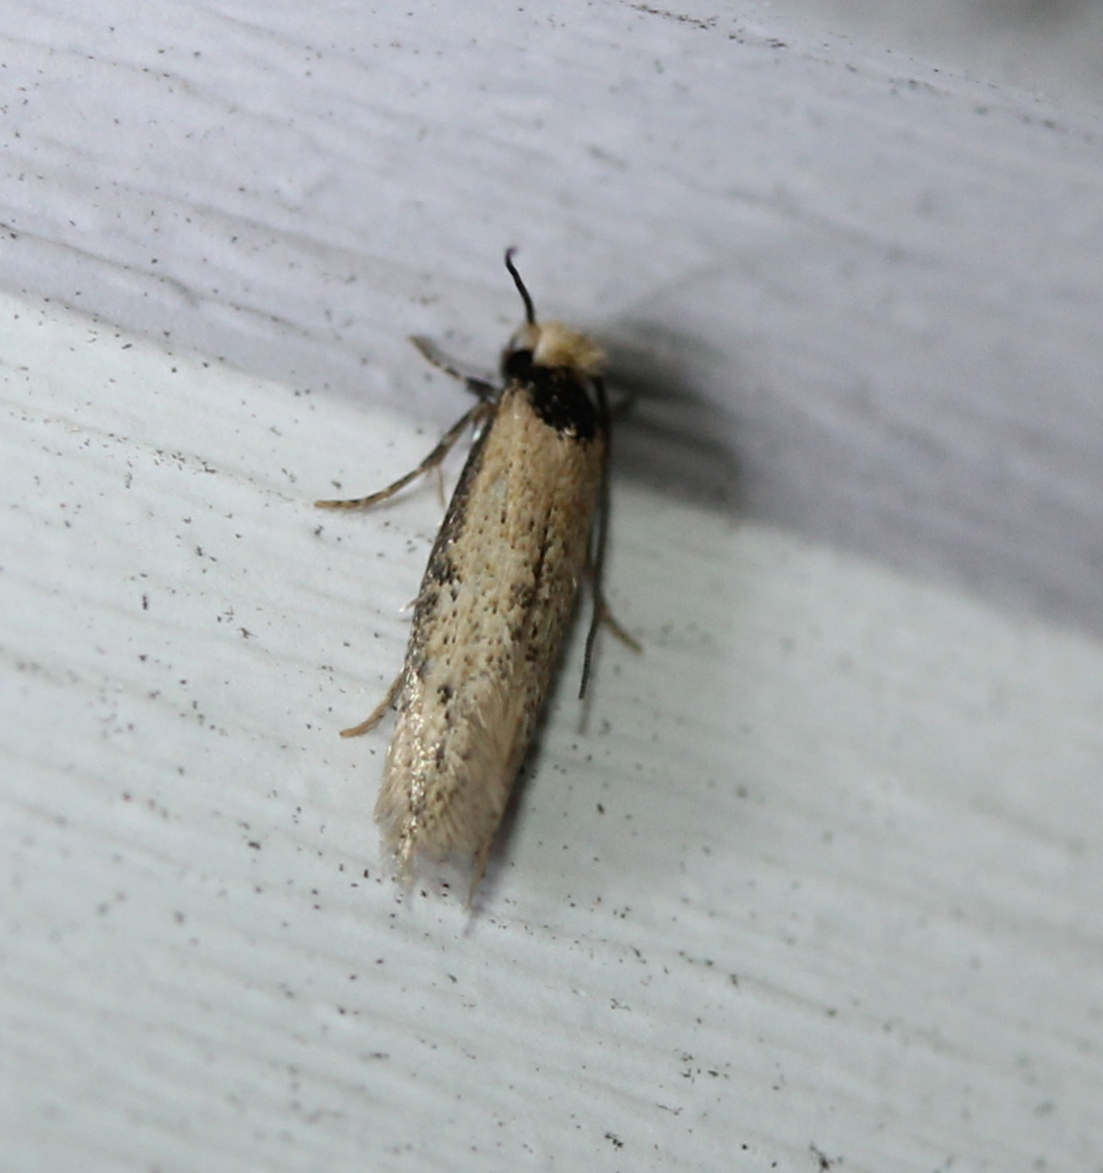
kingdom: Animalia
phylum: Arthropoda
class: Insecta
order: Lepidoptera
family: Meessiidae
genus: Homostinea
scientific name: Homostinea curviliniella
